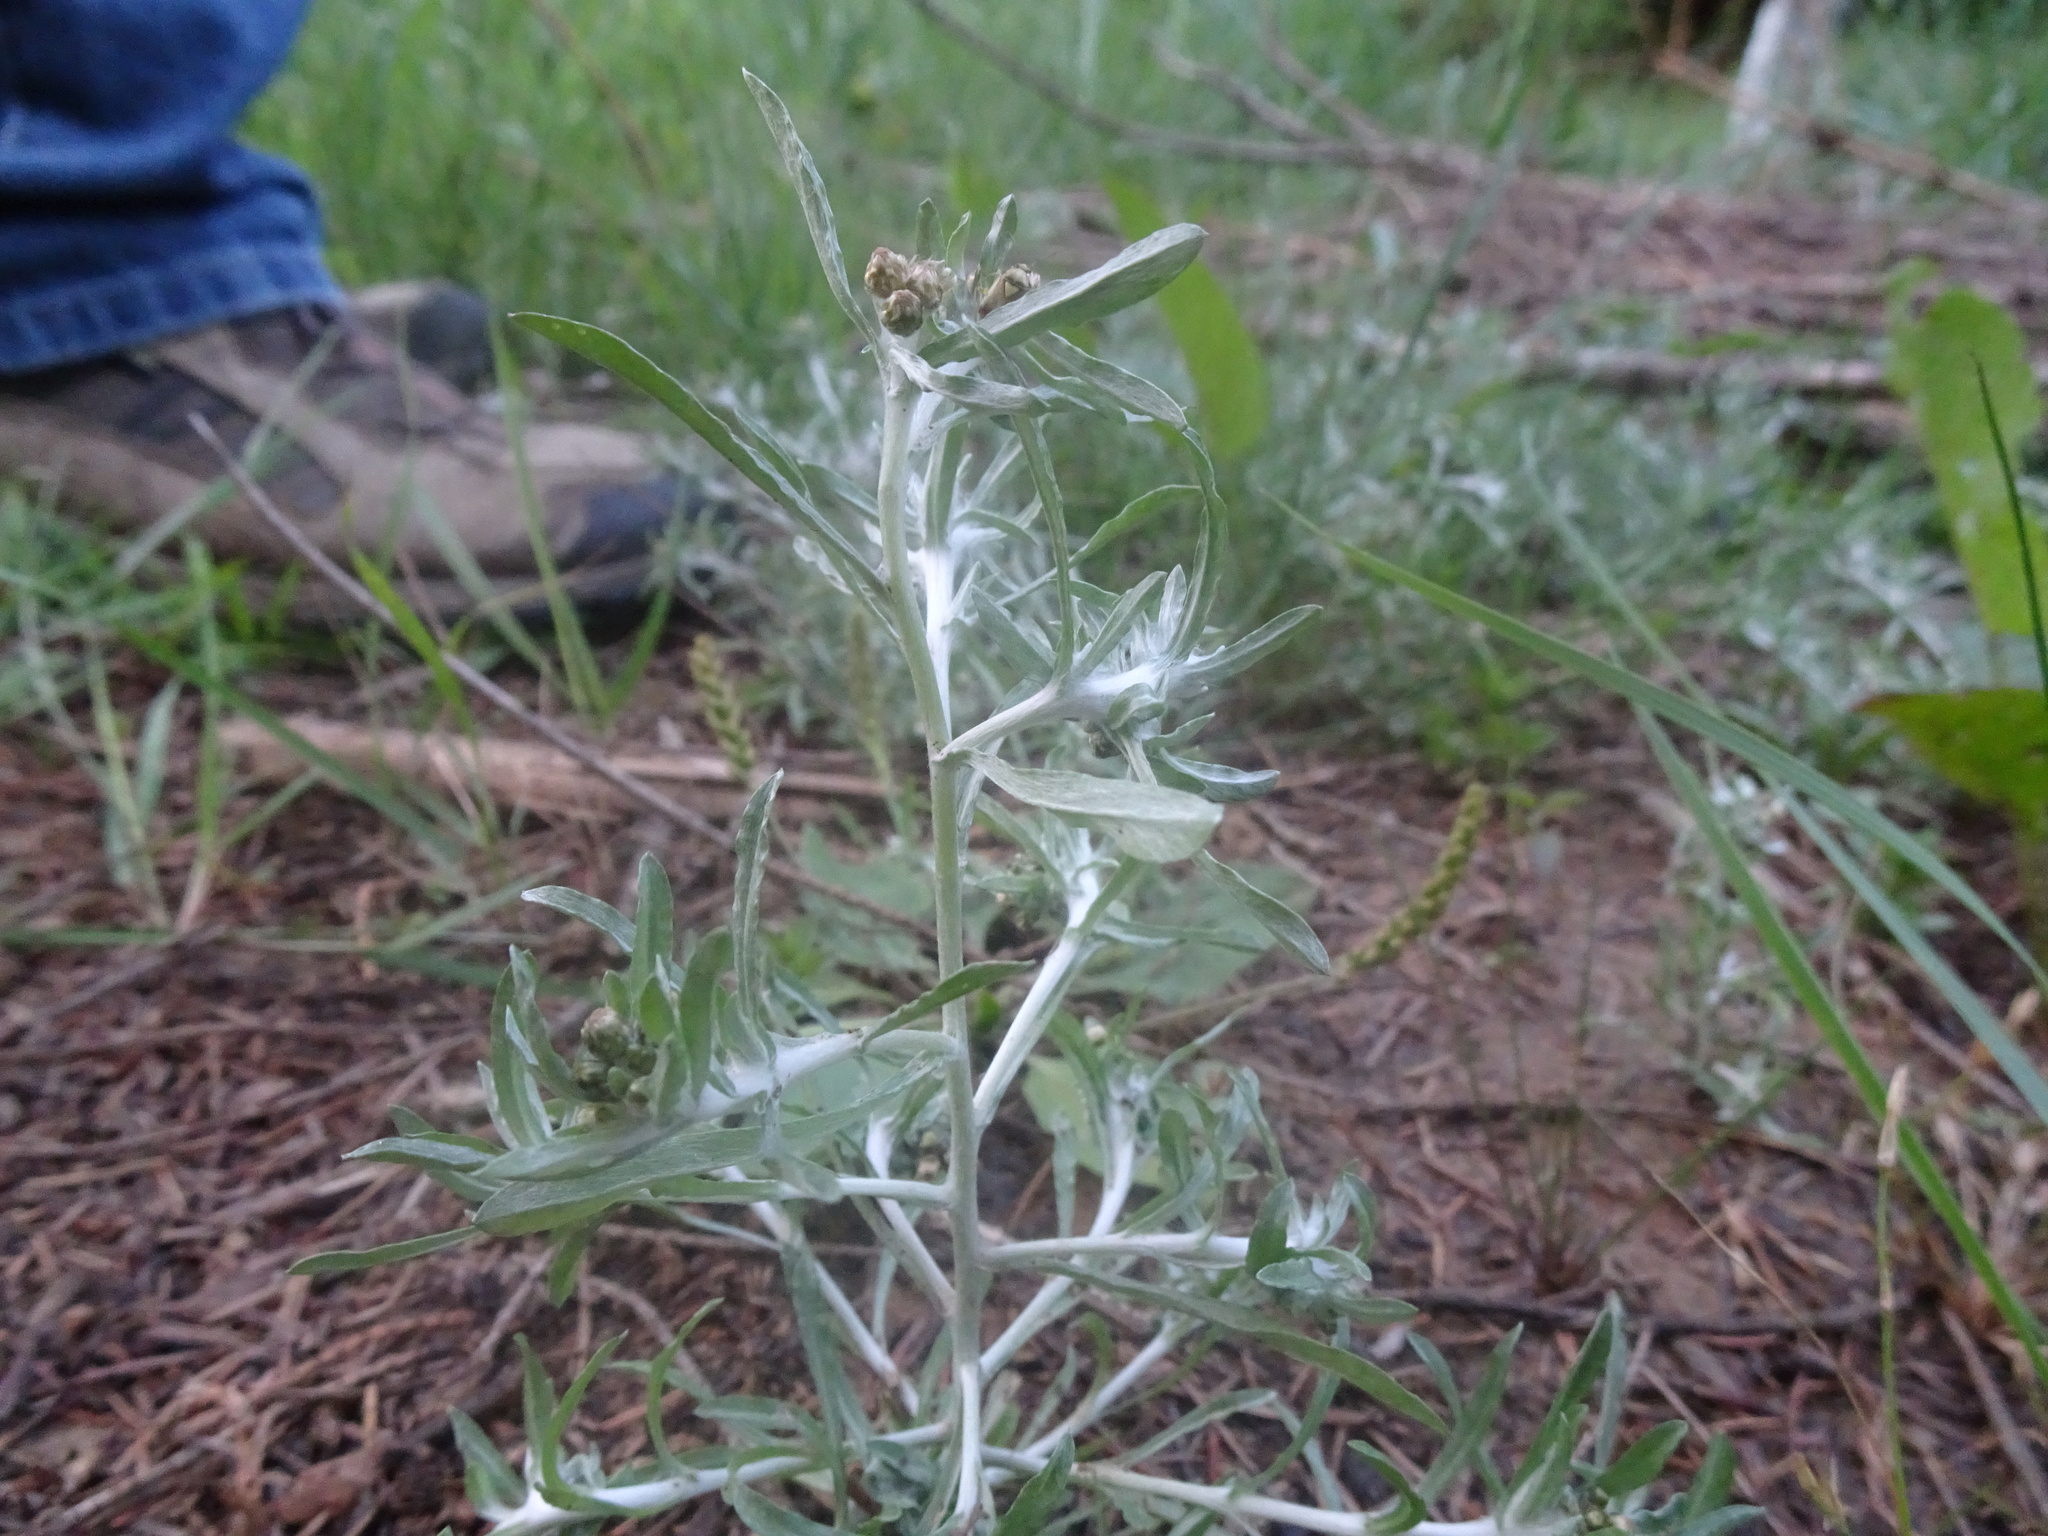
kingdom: Plantae
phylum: Tracheophyta
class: Magnoliopsida
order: Asterales
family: Asteraceae
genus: Gnaphalium
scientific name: Gnaphalium uliginosum
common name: Marsh cudweed
